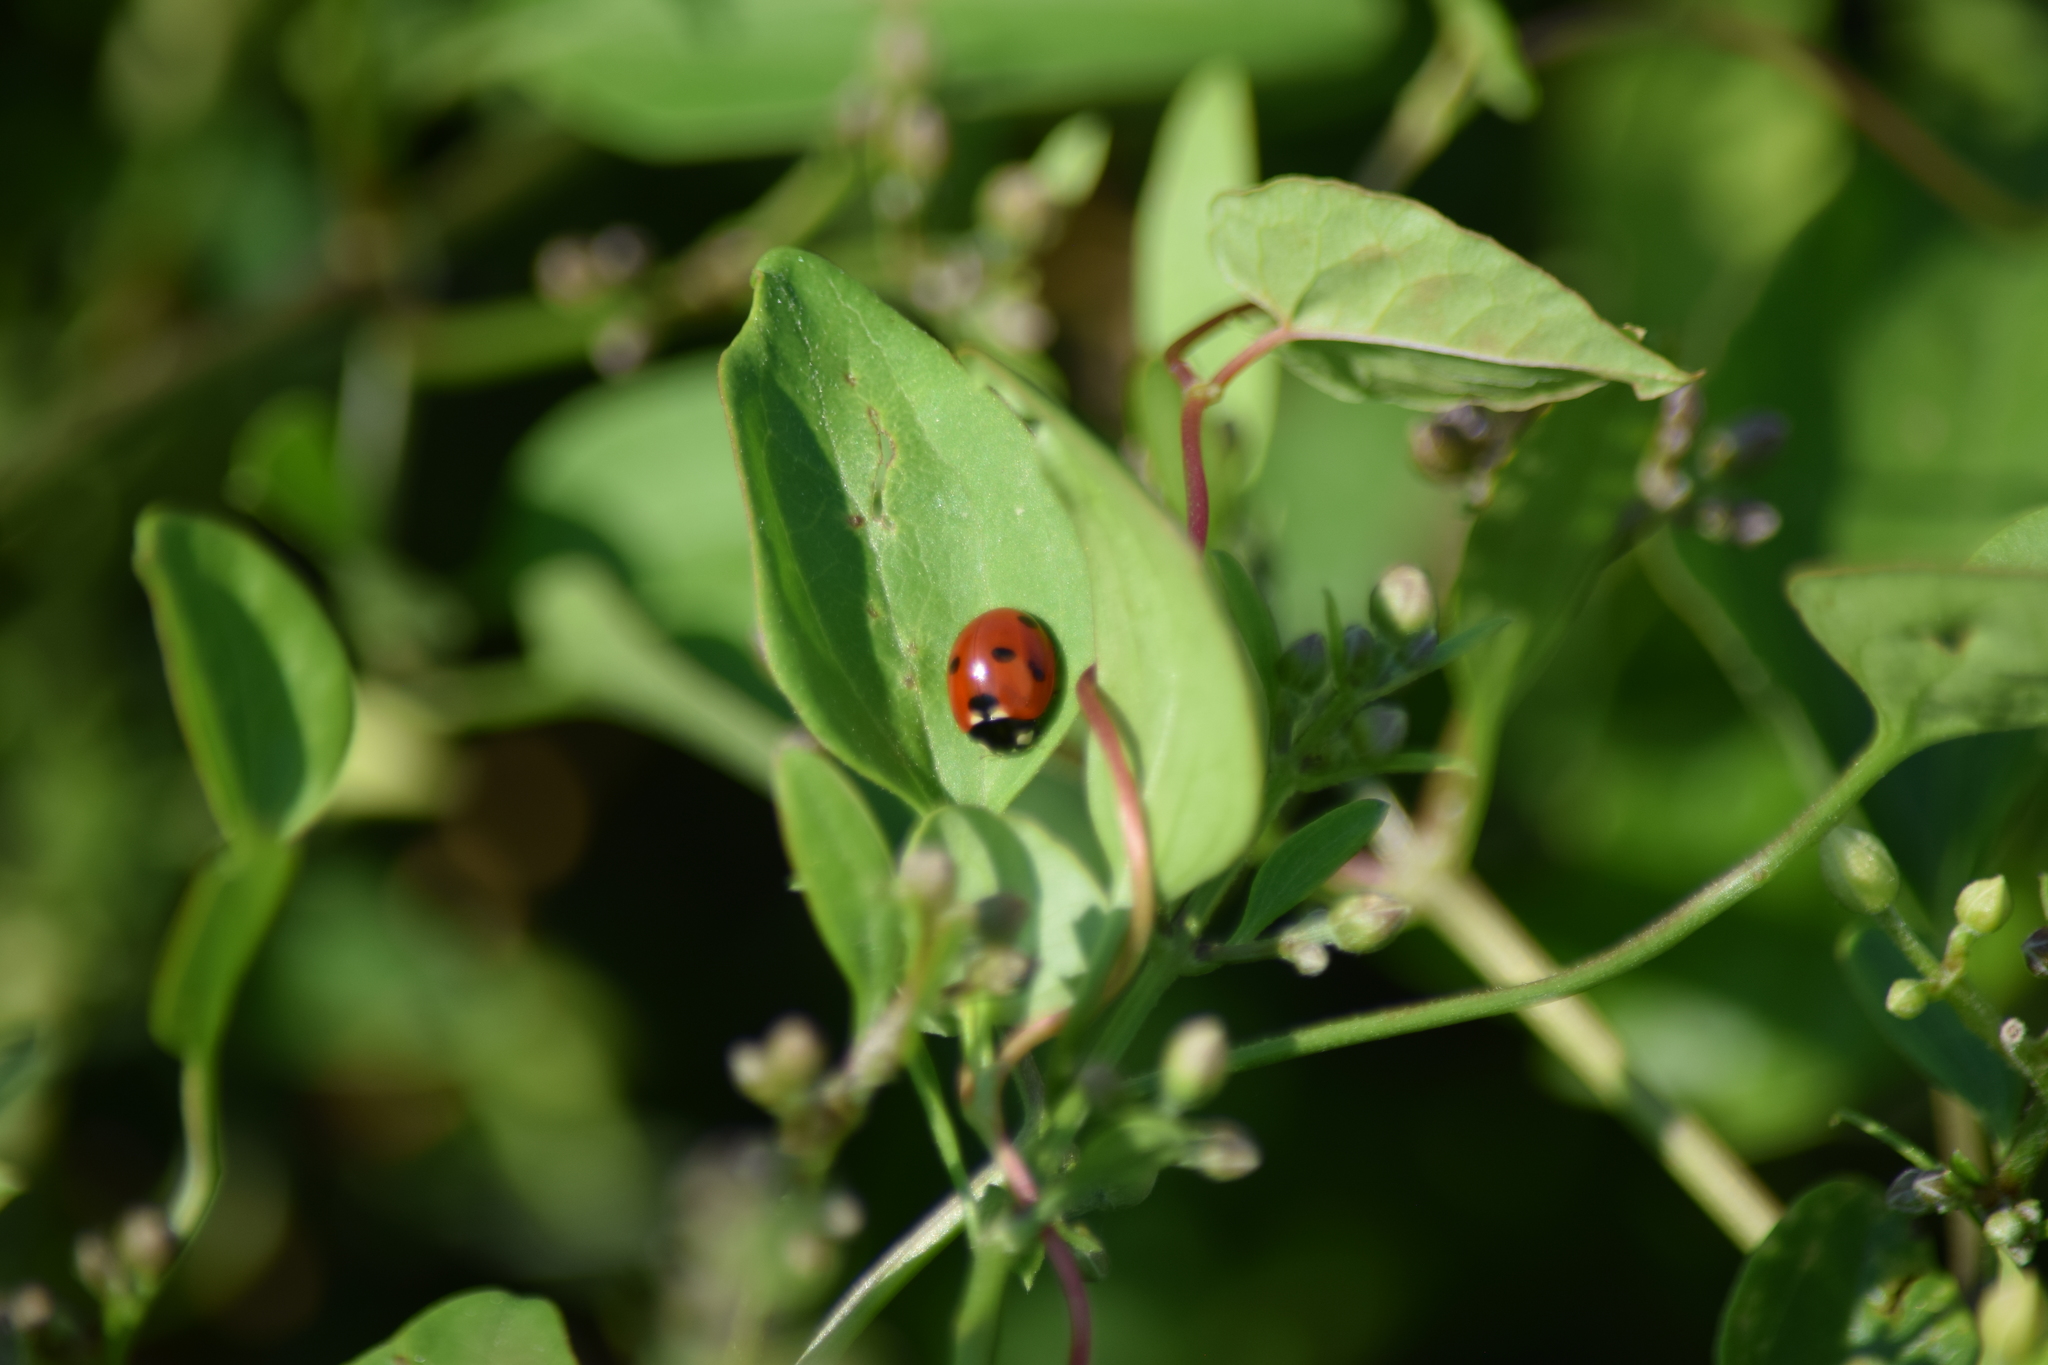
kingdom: Animalia
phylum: Arthropoda
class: Insecta
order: Coleoptera
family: Coccinellidae
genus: Coccinella
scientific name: Coccinella septempunctata
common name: Sevenspotted lady beetle
